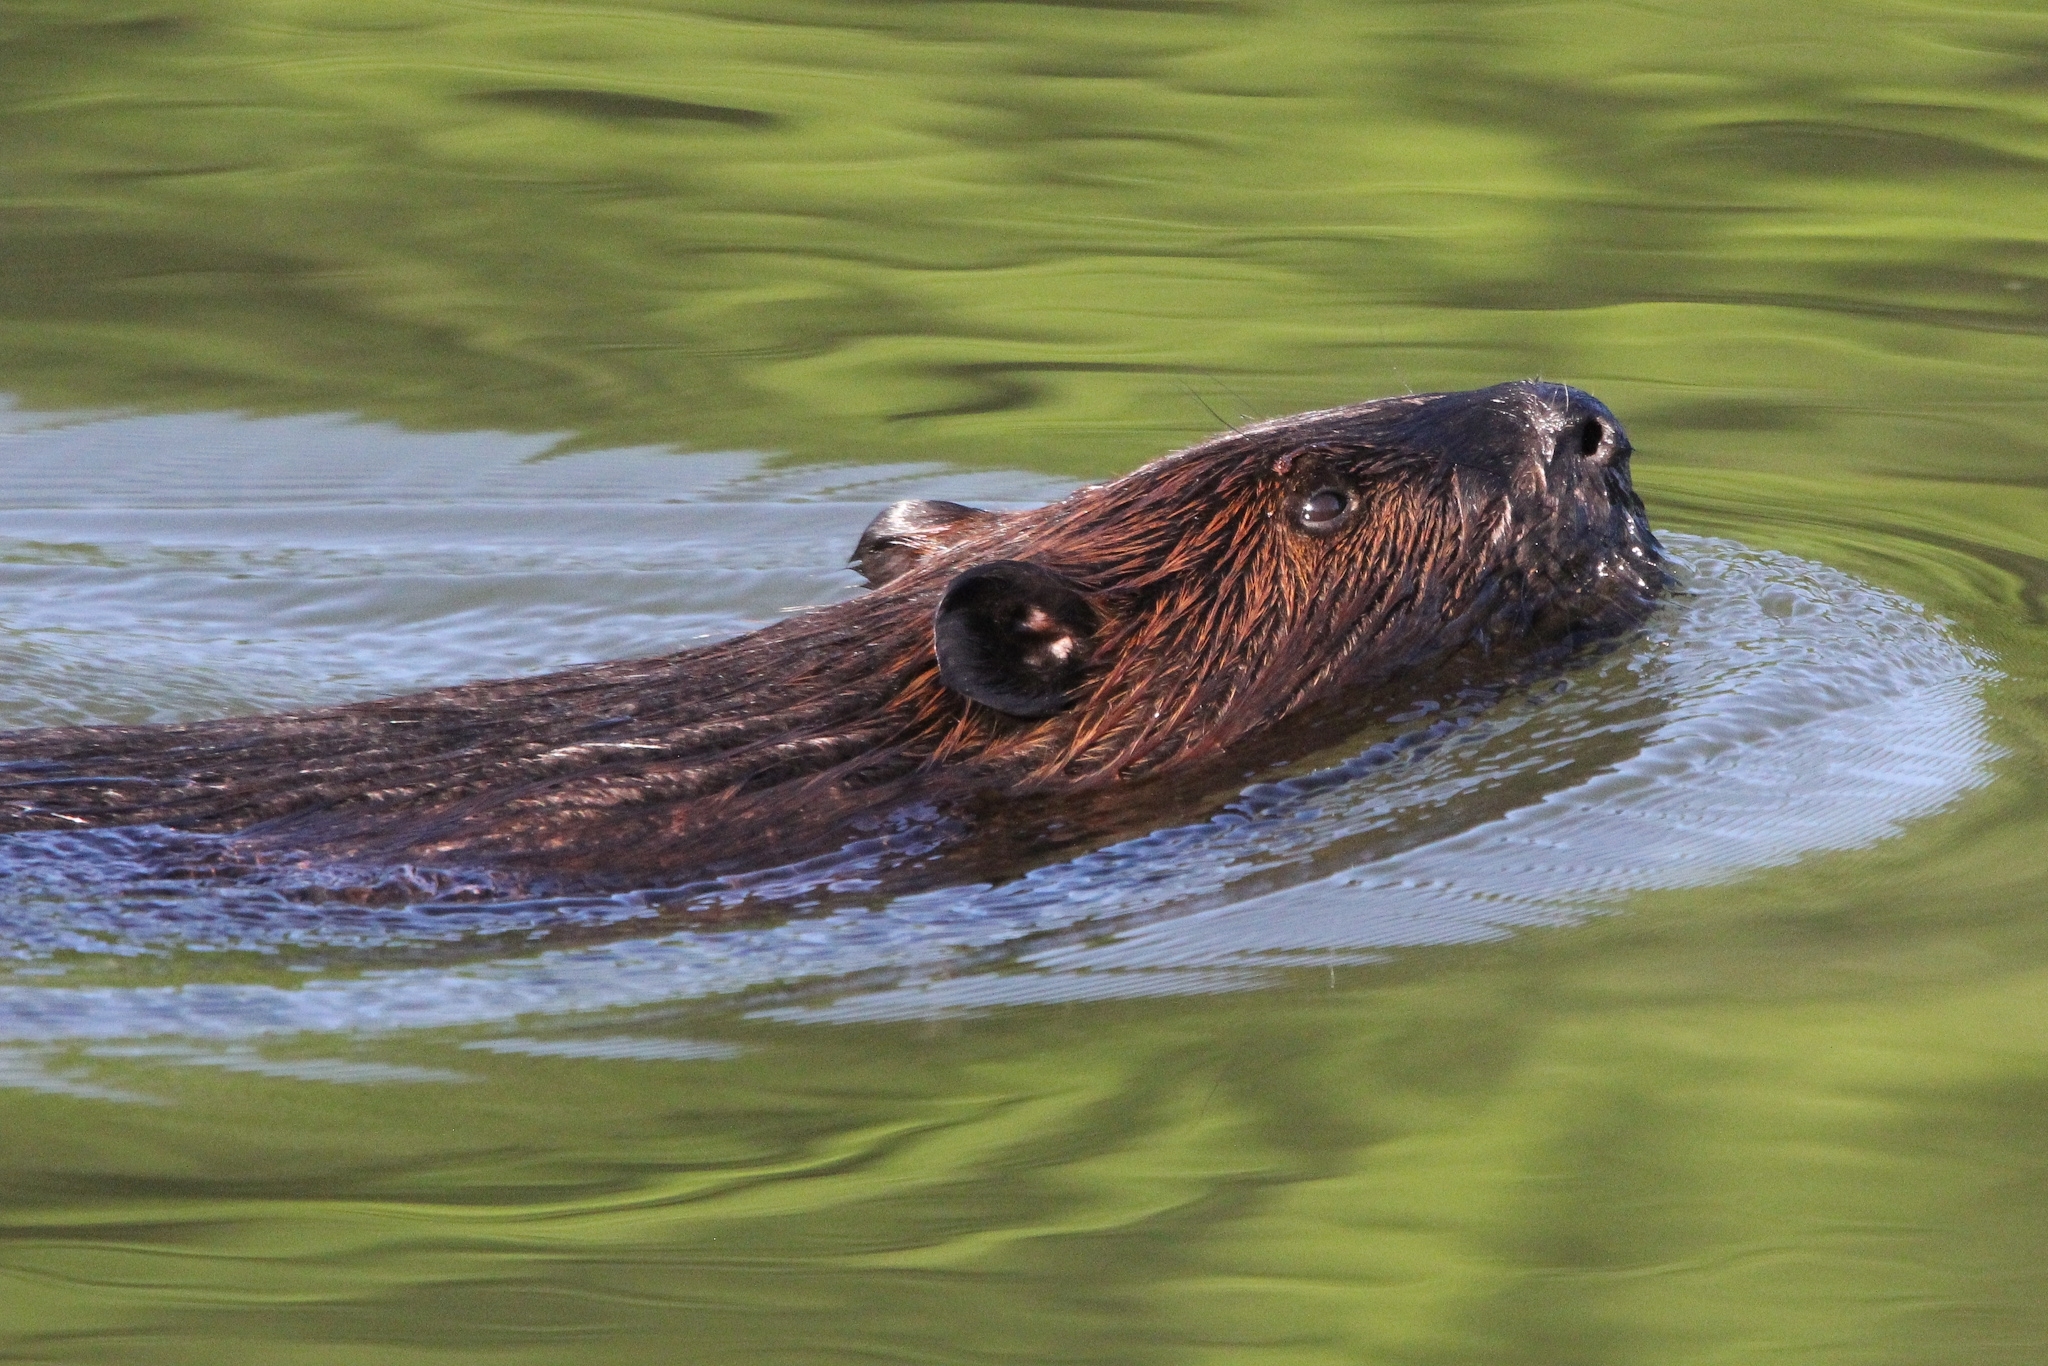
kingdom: Animalia
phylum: Chordata
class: Mammalia
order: Rodentia
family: Castoridae
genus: Castor
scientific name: Castor canadensis
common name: American beaver
